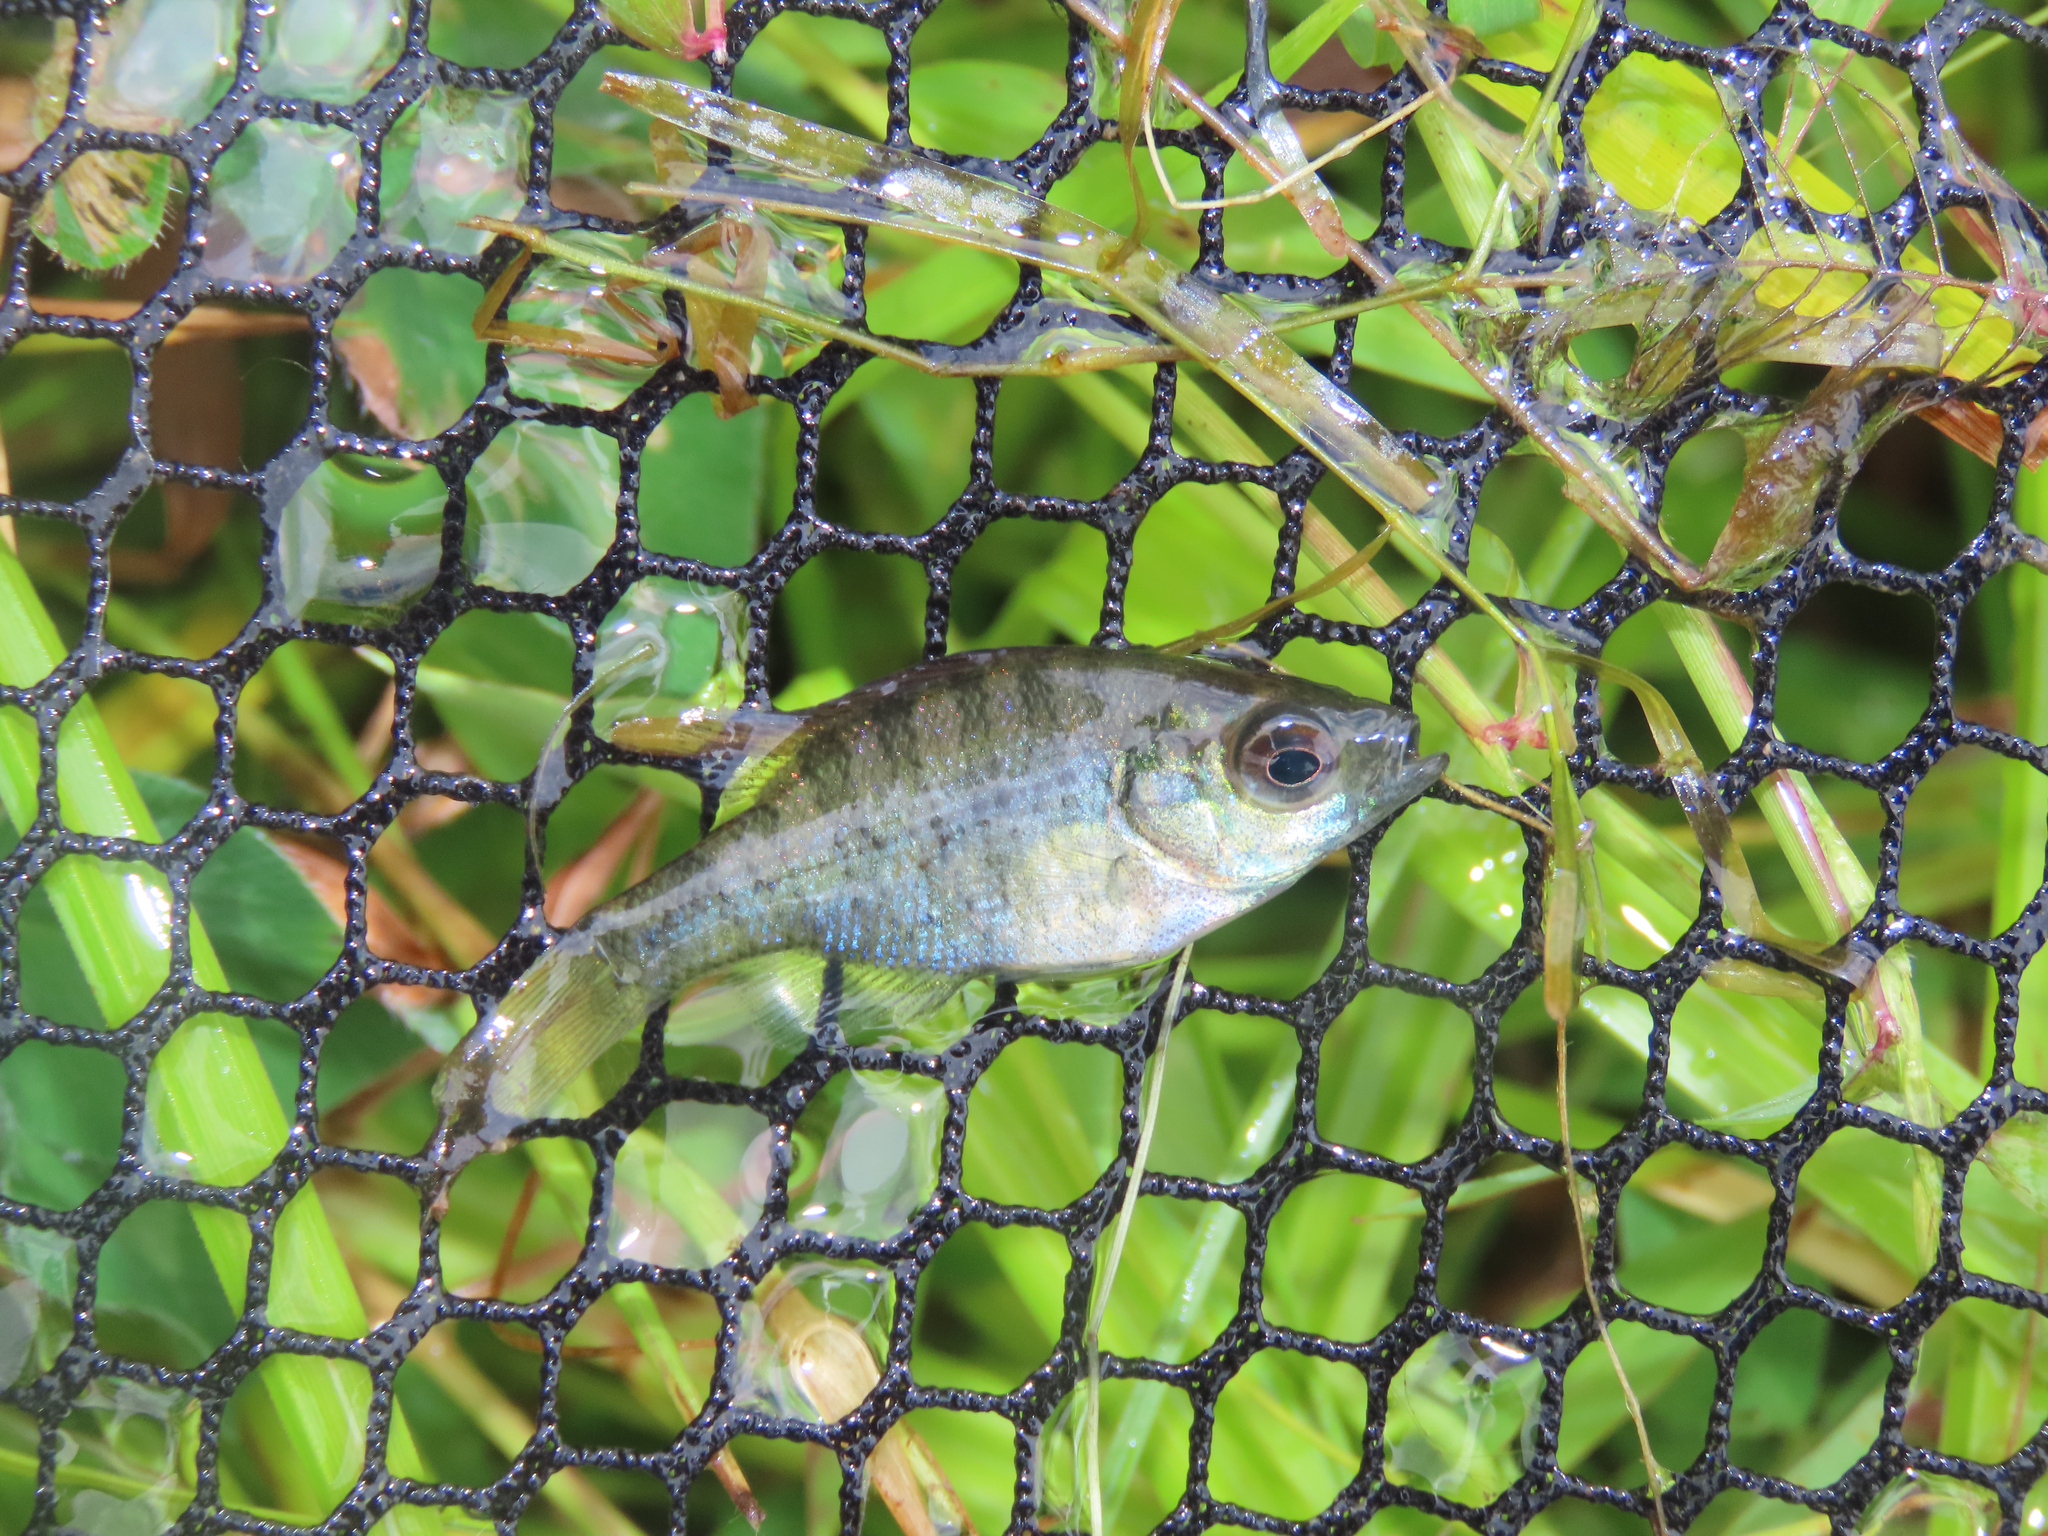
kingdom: Animalia
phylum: Chordata
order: Perciformes
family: Centrarchidae
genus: Lepomis
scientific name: Lepomis macrochirus
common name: Bluegill
